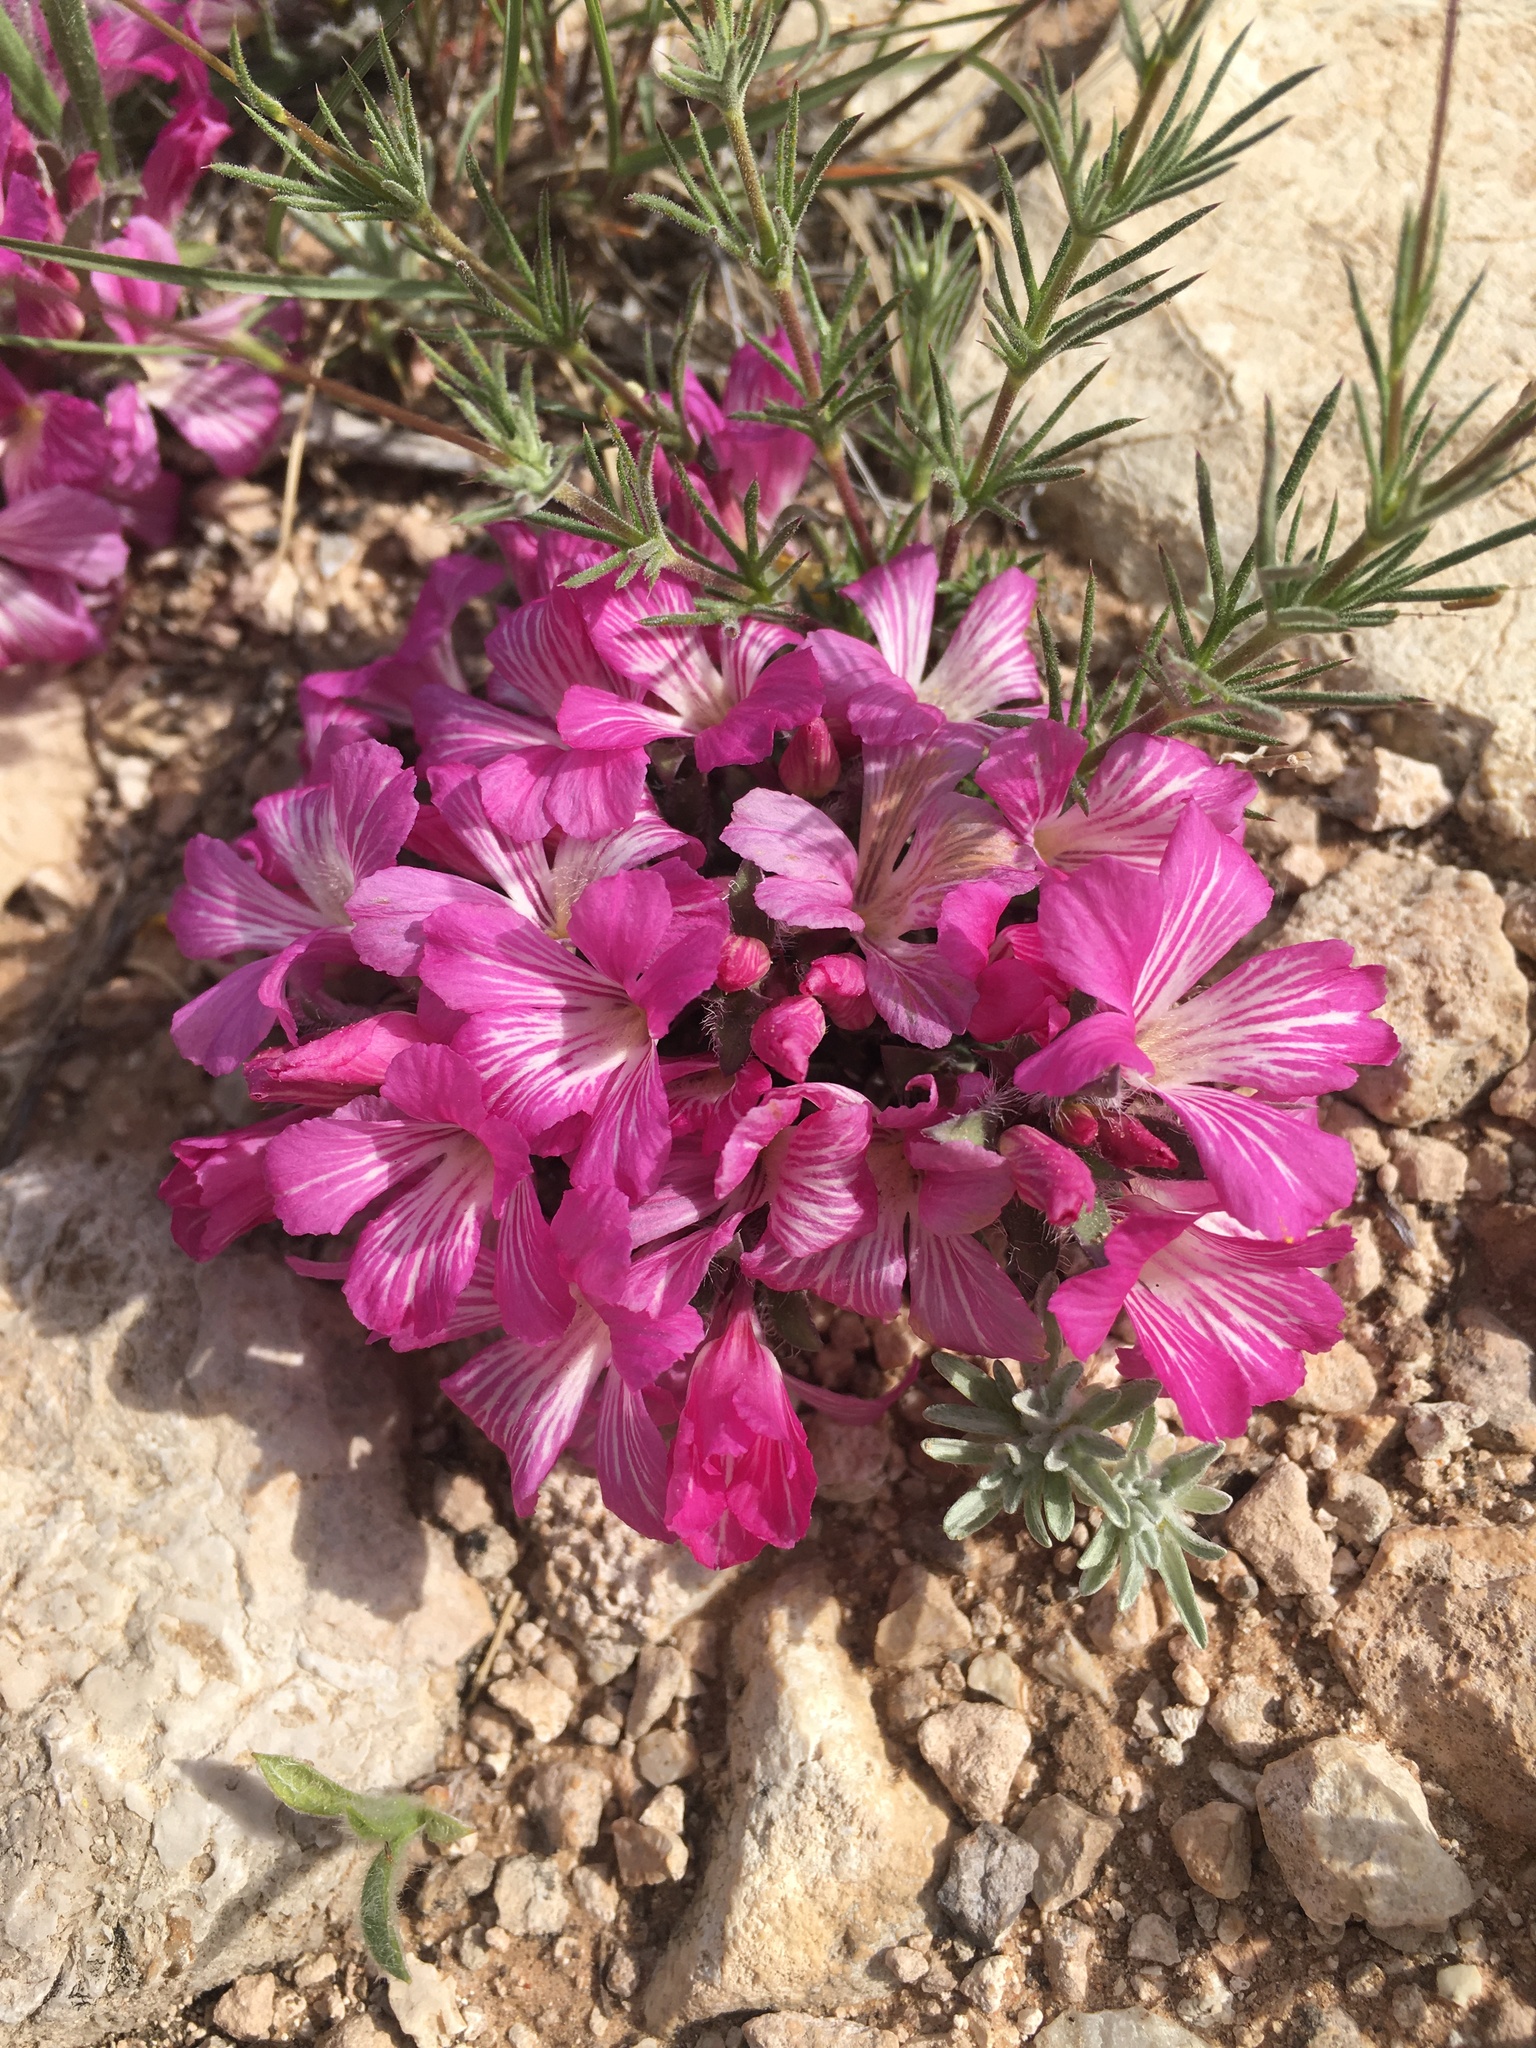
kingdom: Plantae
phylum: Tracheophyta
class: Magnoliopsida
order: Lamiales
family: Acanthaceae
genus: Stenandrium
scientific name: Stenandrium barbatum
